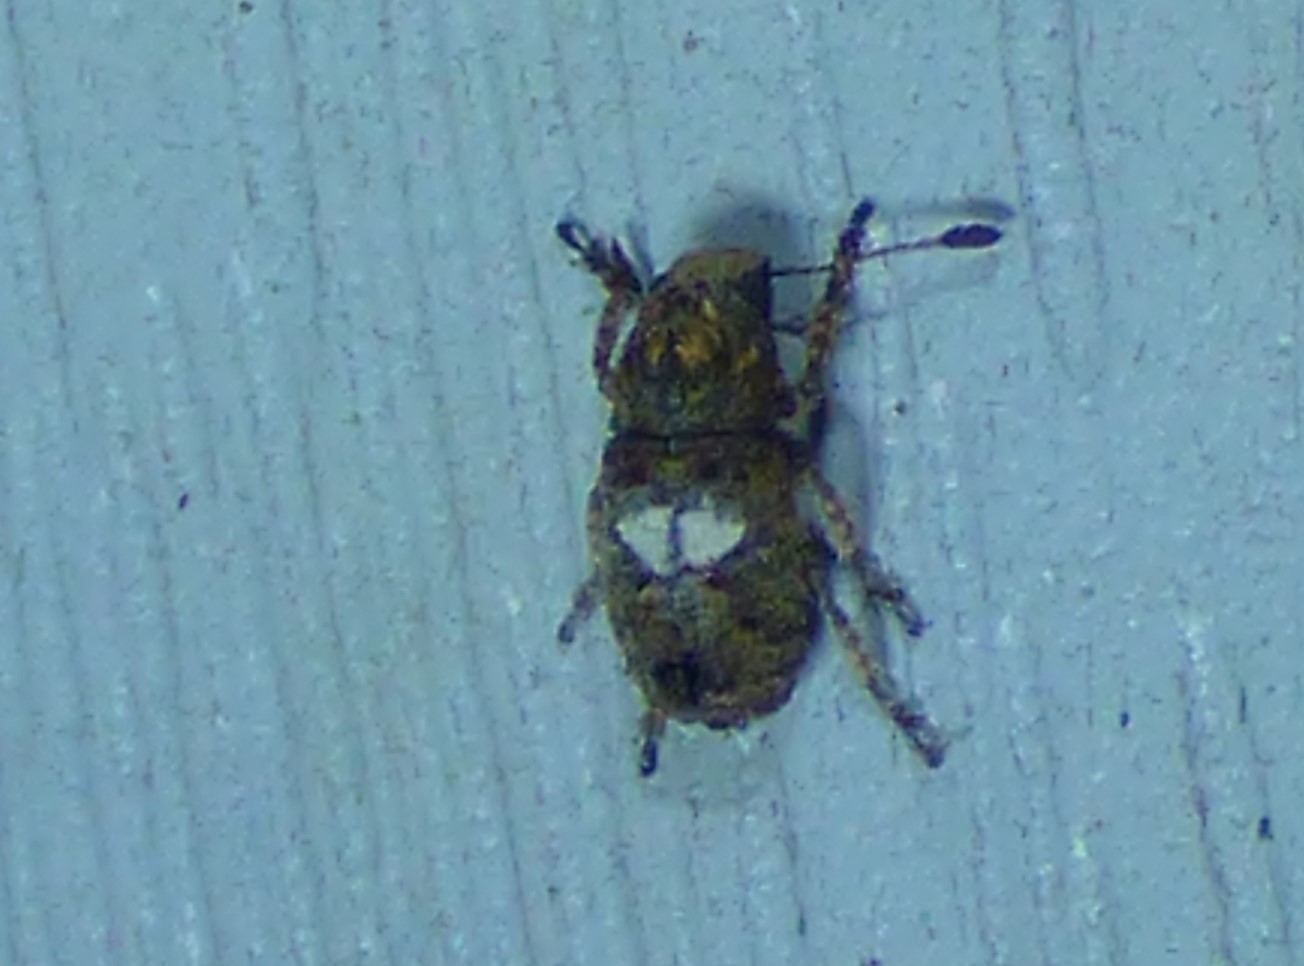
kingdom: Animalia
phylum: Arthropoda
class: Insecta
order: Coleoptera
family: Anthribidae
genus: Toxonotus
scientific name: Toxonotus cornutus
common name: Fungus weevil
